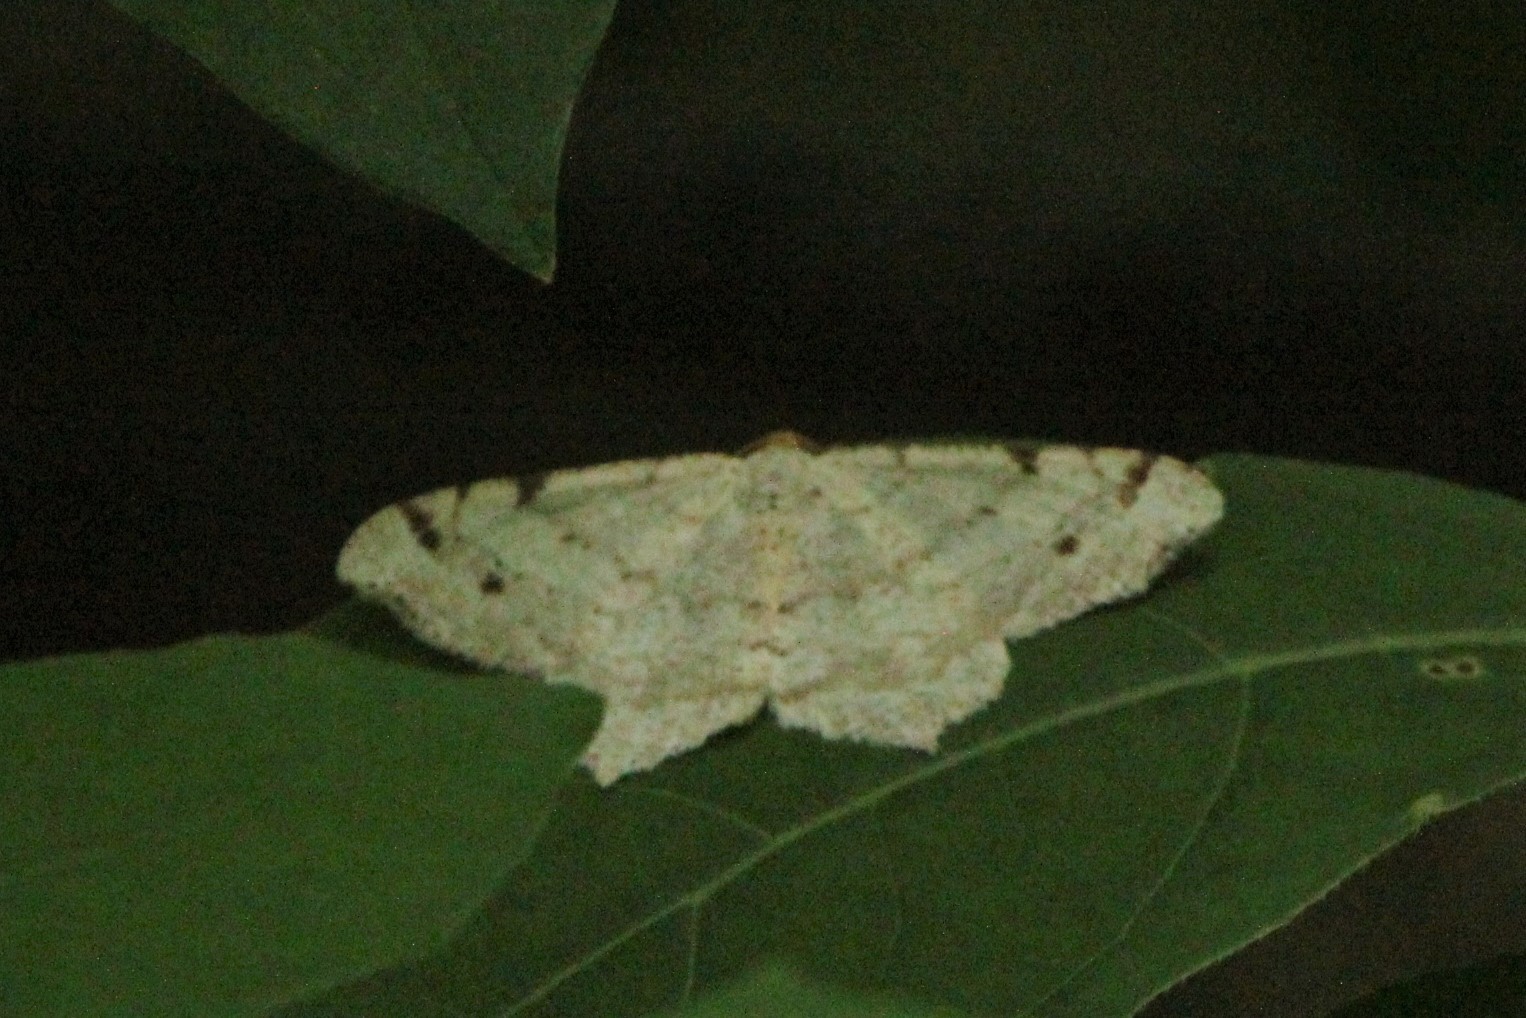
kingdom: Animalia
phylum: Arthropoda
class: Insecta
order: Lepidoptera
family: Geometridae
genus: Macaria
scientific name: Macaria bisignata
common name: Red-headed inchworm
